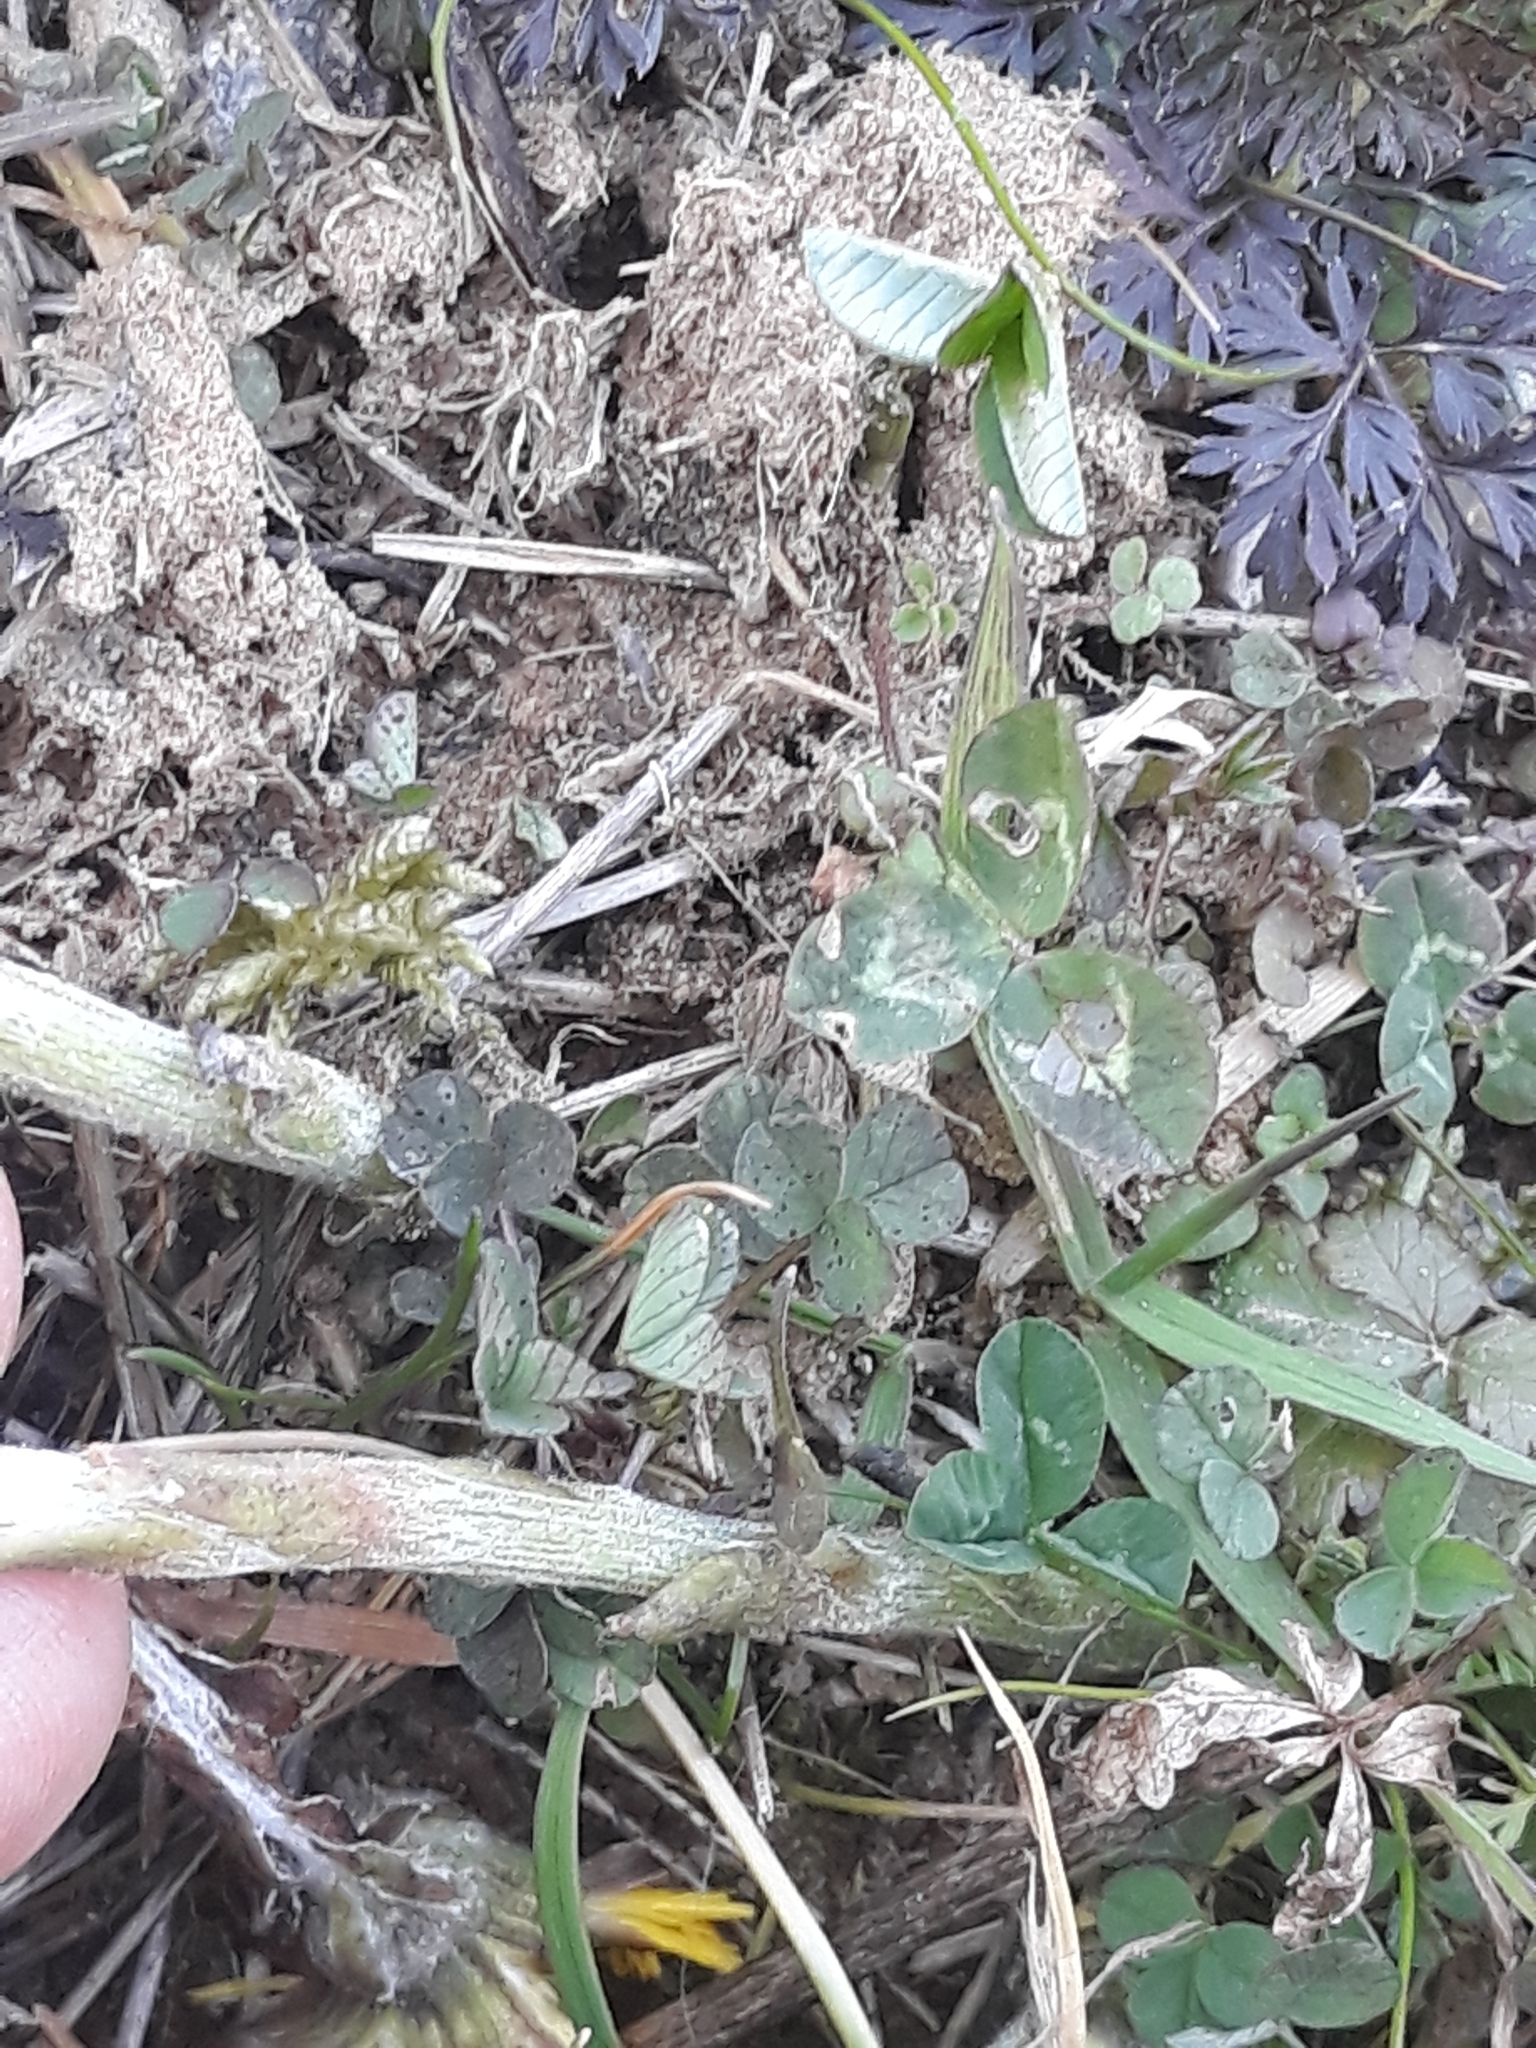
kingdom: Plantae
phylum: Tracheophyta
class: Magnoliopsida
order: Asterales
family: Asteraceae
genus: Tussilago
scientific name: Tussilago farfara
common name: Coltsfoot
